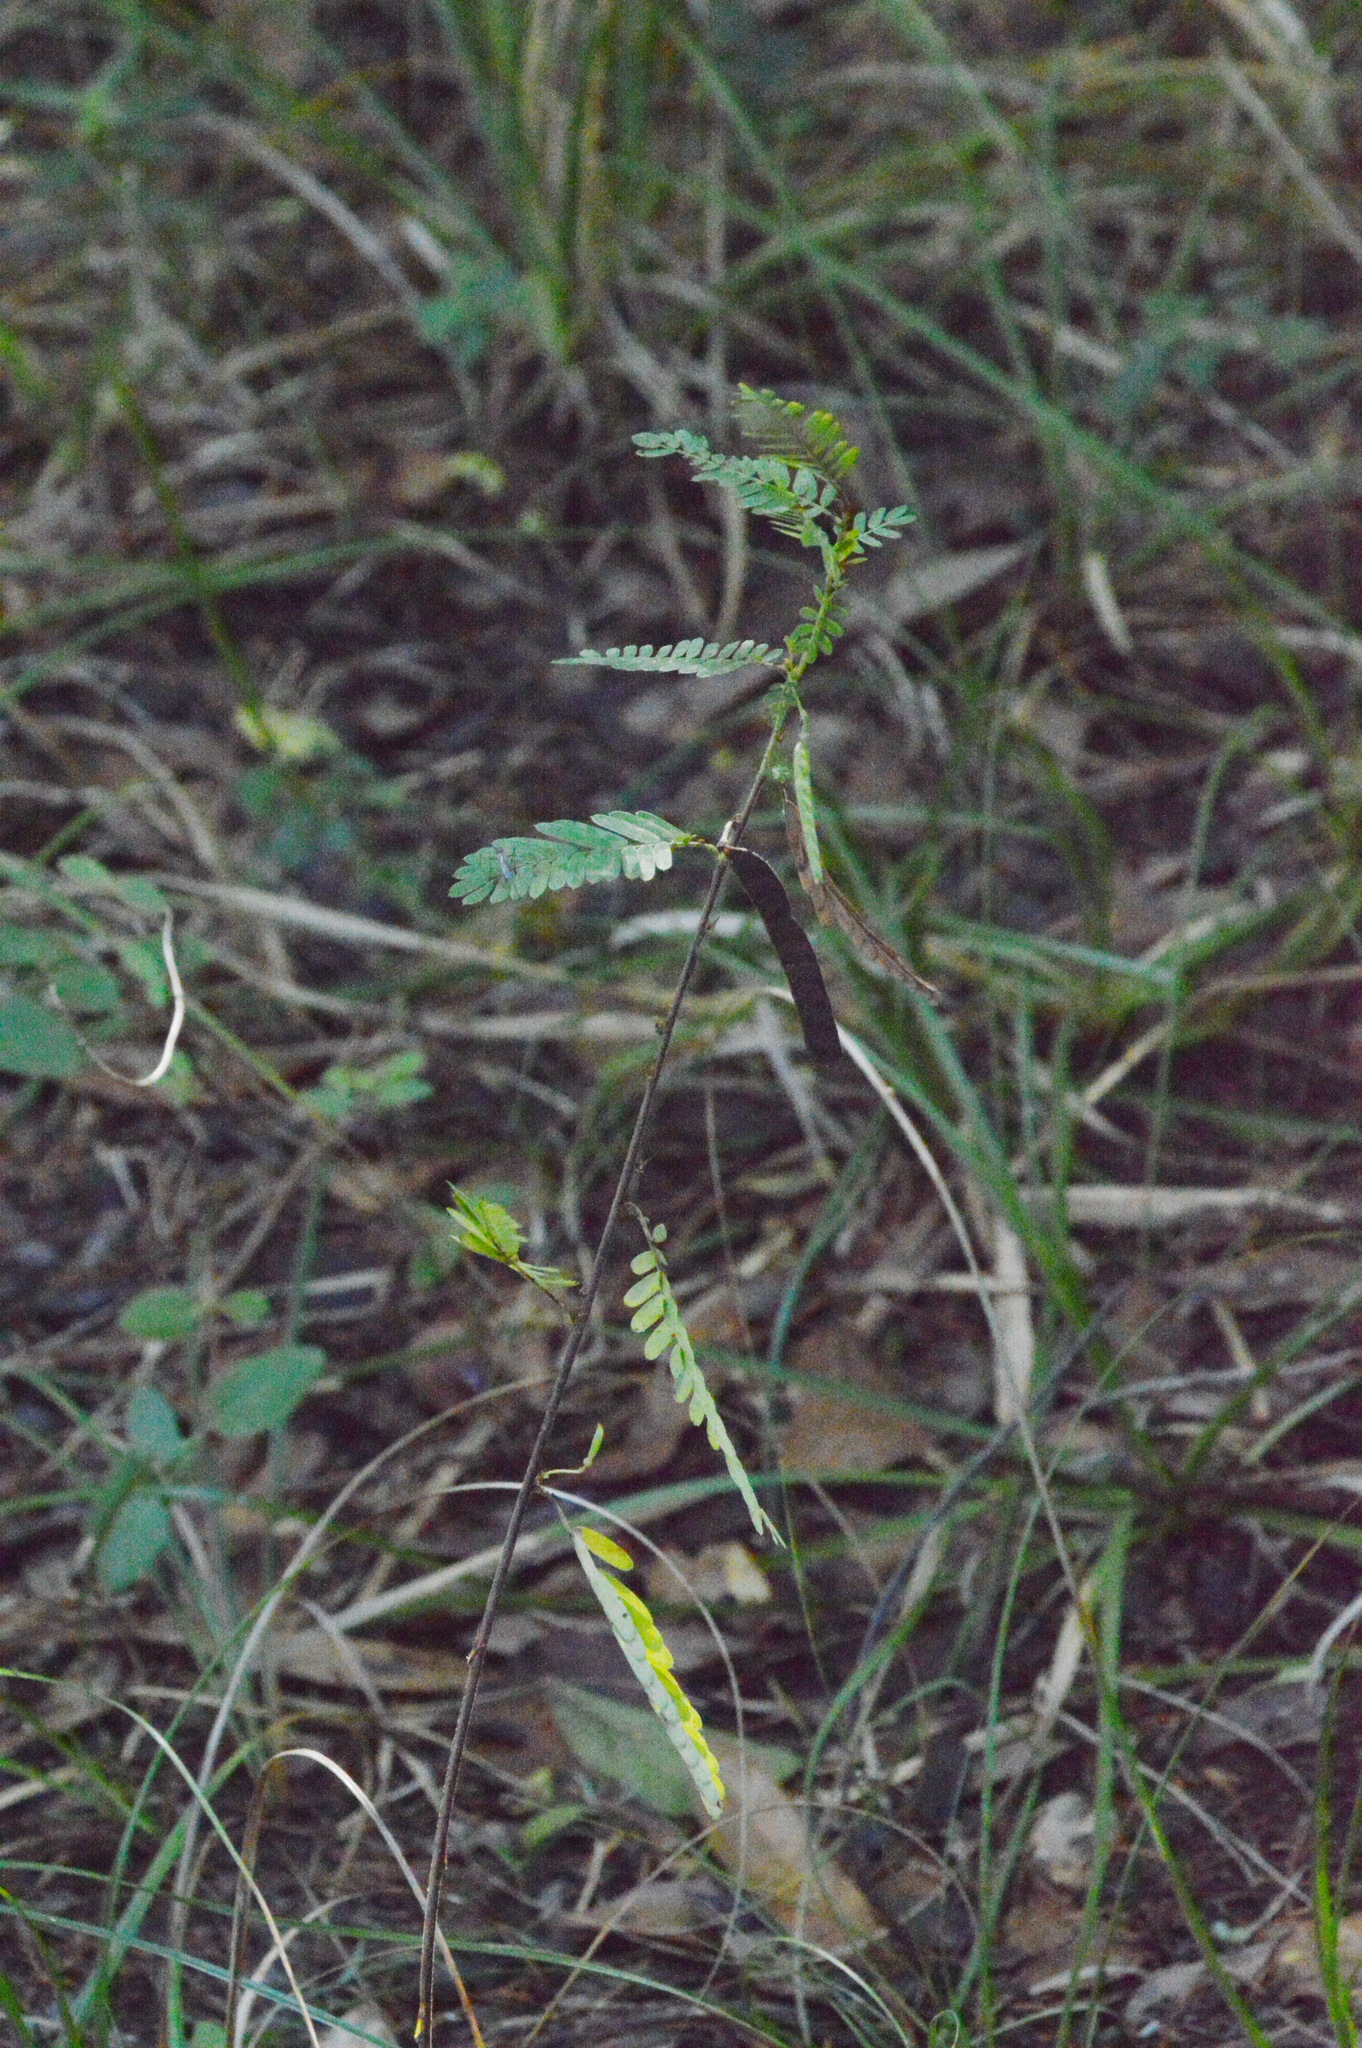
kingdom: Plantae
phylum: Tracheophyta
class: Magnoliopsida
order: Fabales
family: Fabaceae
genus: Chamaecrista
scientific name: Chamaecrista fasciculata
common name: Golden cassia
